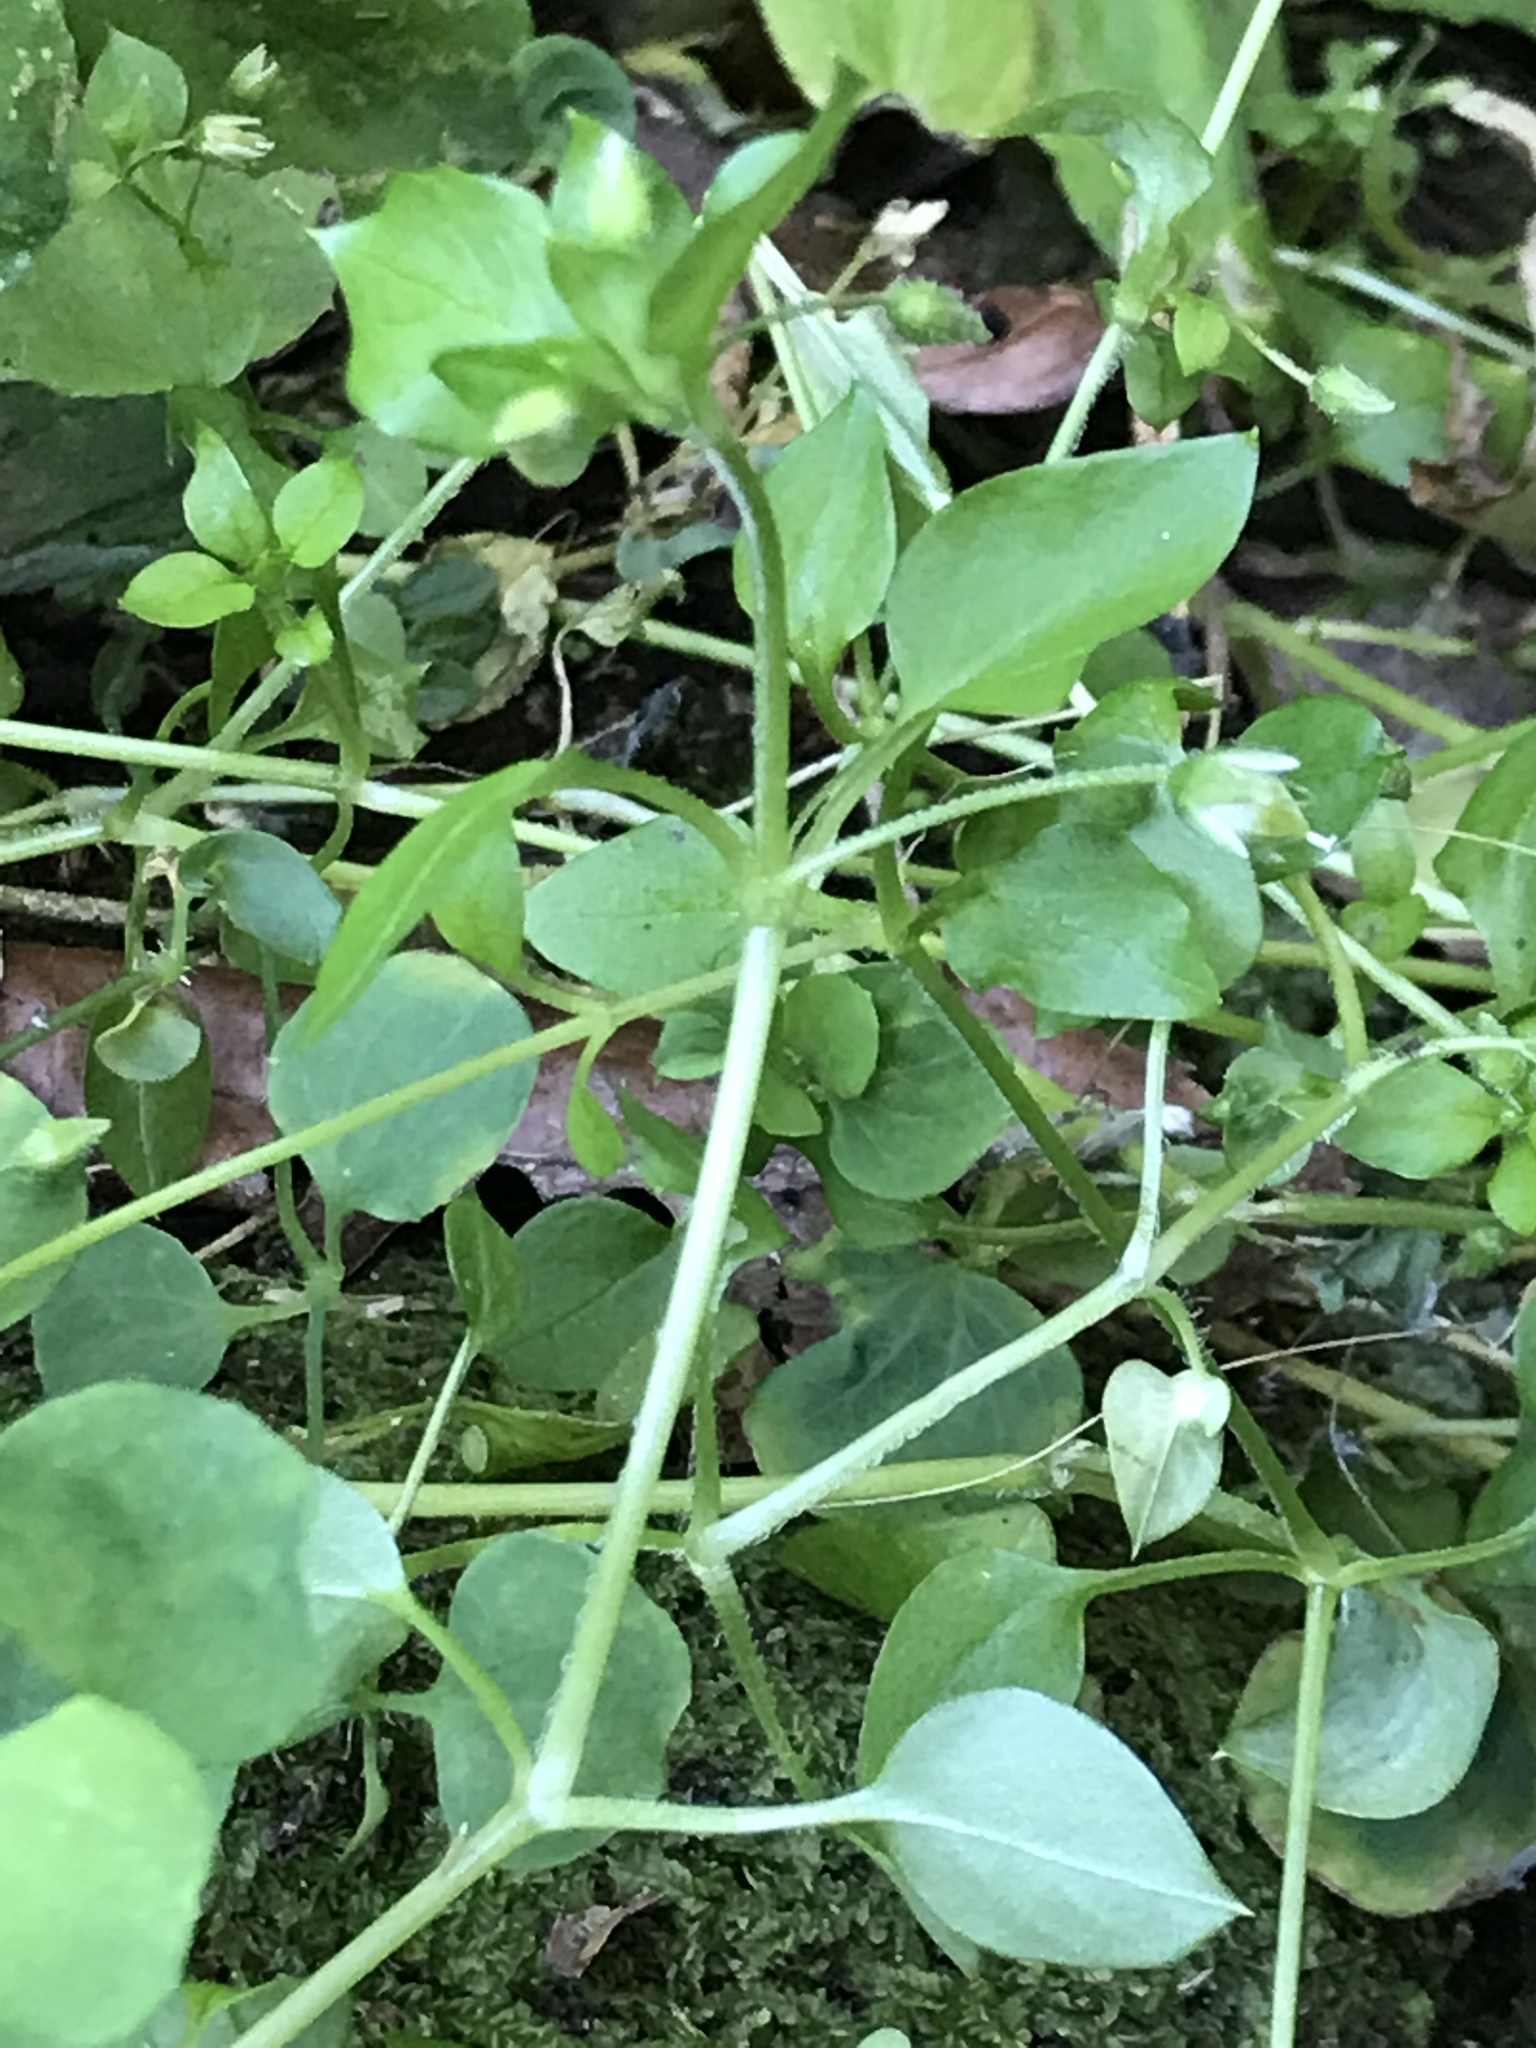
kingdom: Plantae
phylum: Tracheophyta
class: Magnoliopsida
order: Caryophyllales
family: Caryophyllaceae
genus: Stellaria
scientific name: Stellaria media
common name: Common chickweed
